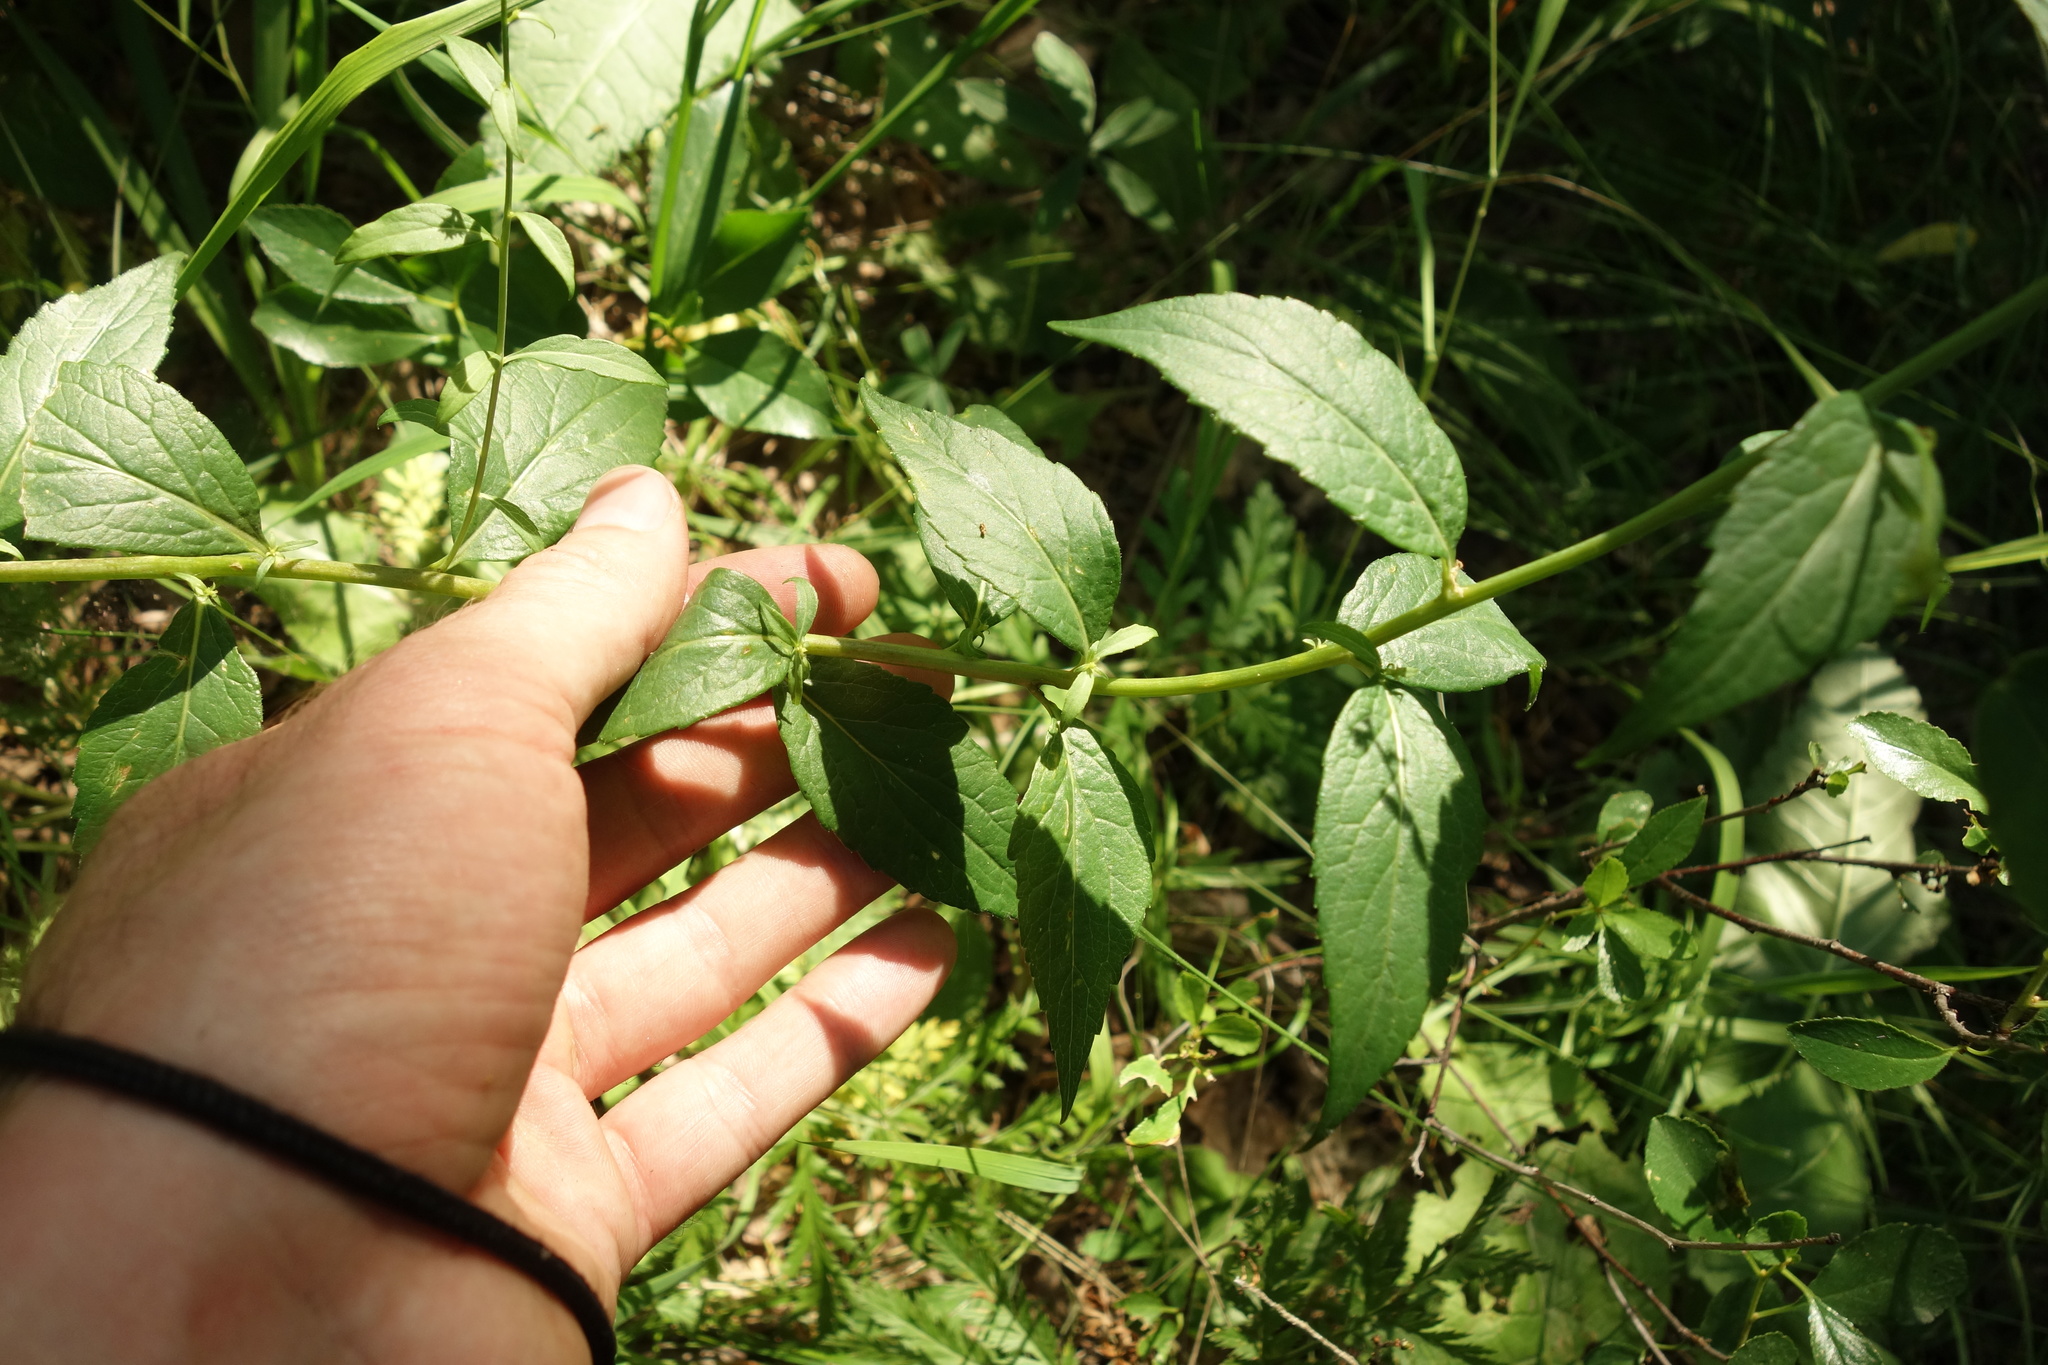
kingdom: Plantae
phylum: Tracheophyta
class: Magnoliopsida
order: Asterales
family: Campanulaceae
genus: Adenophora
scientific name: Adenophora liliifolia
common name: Lilyleaf ladybells
